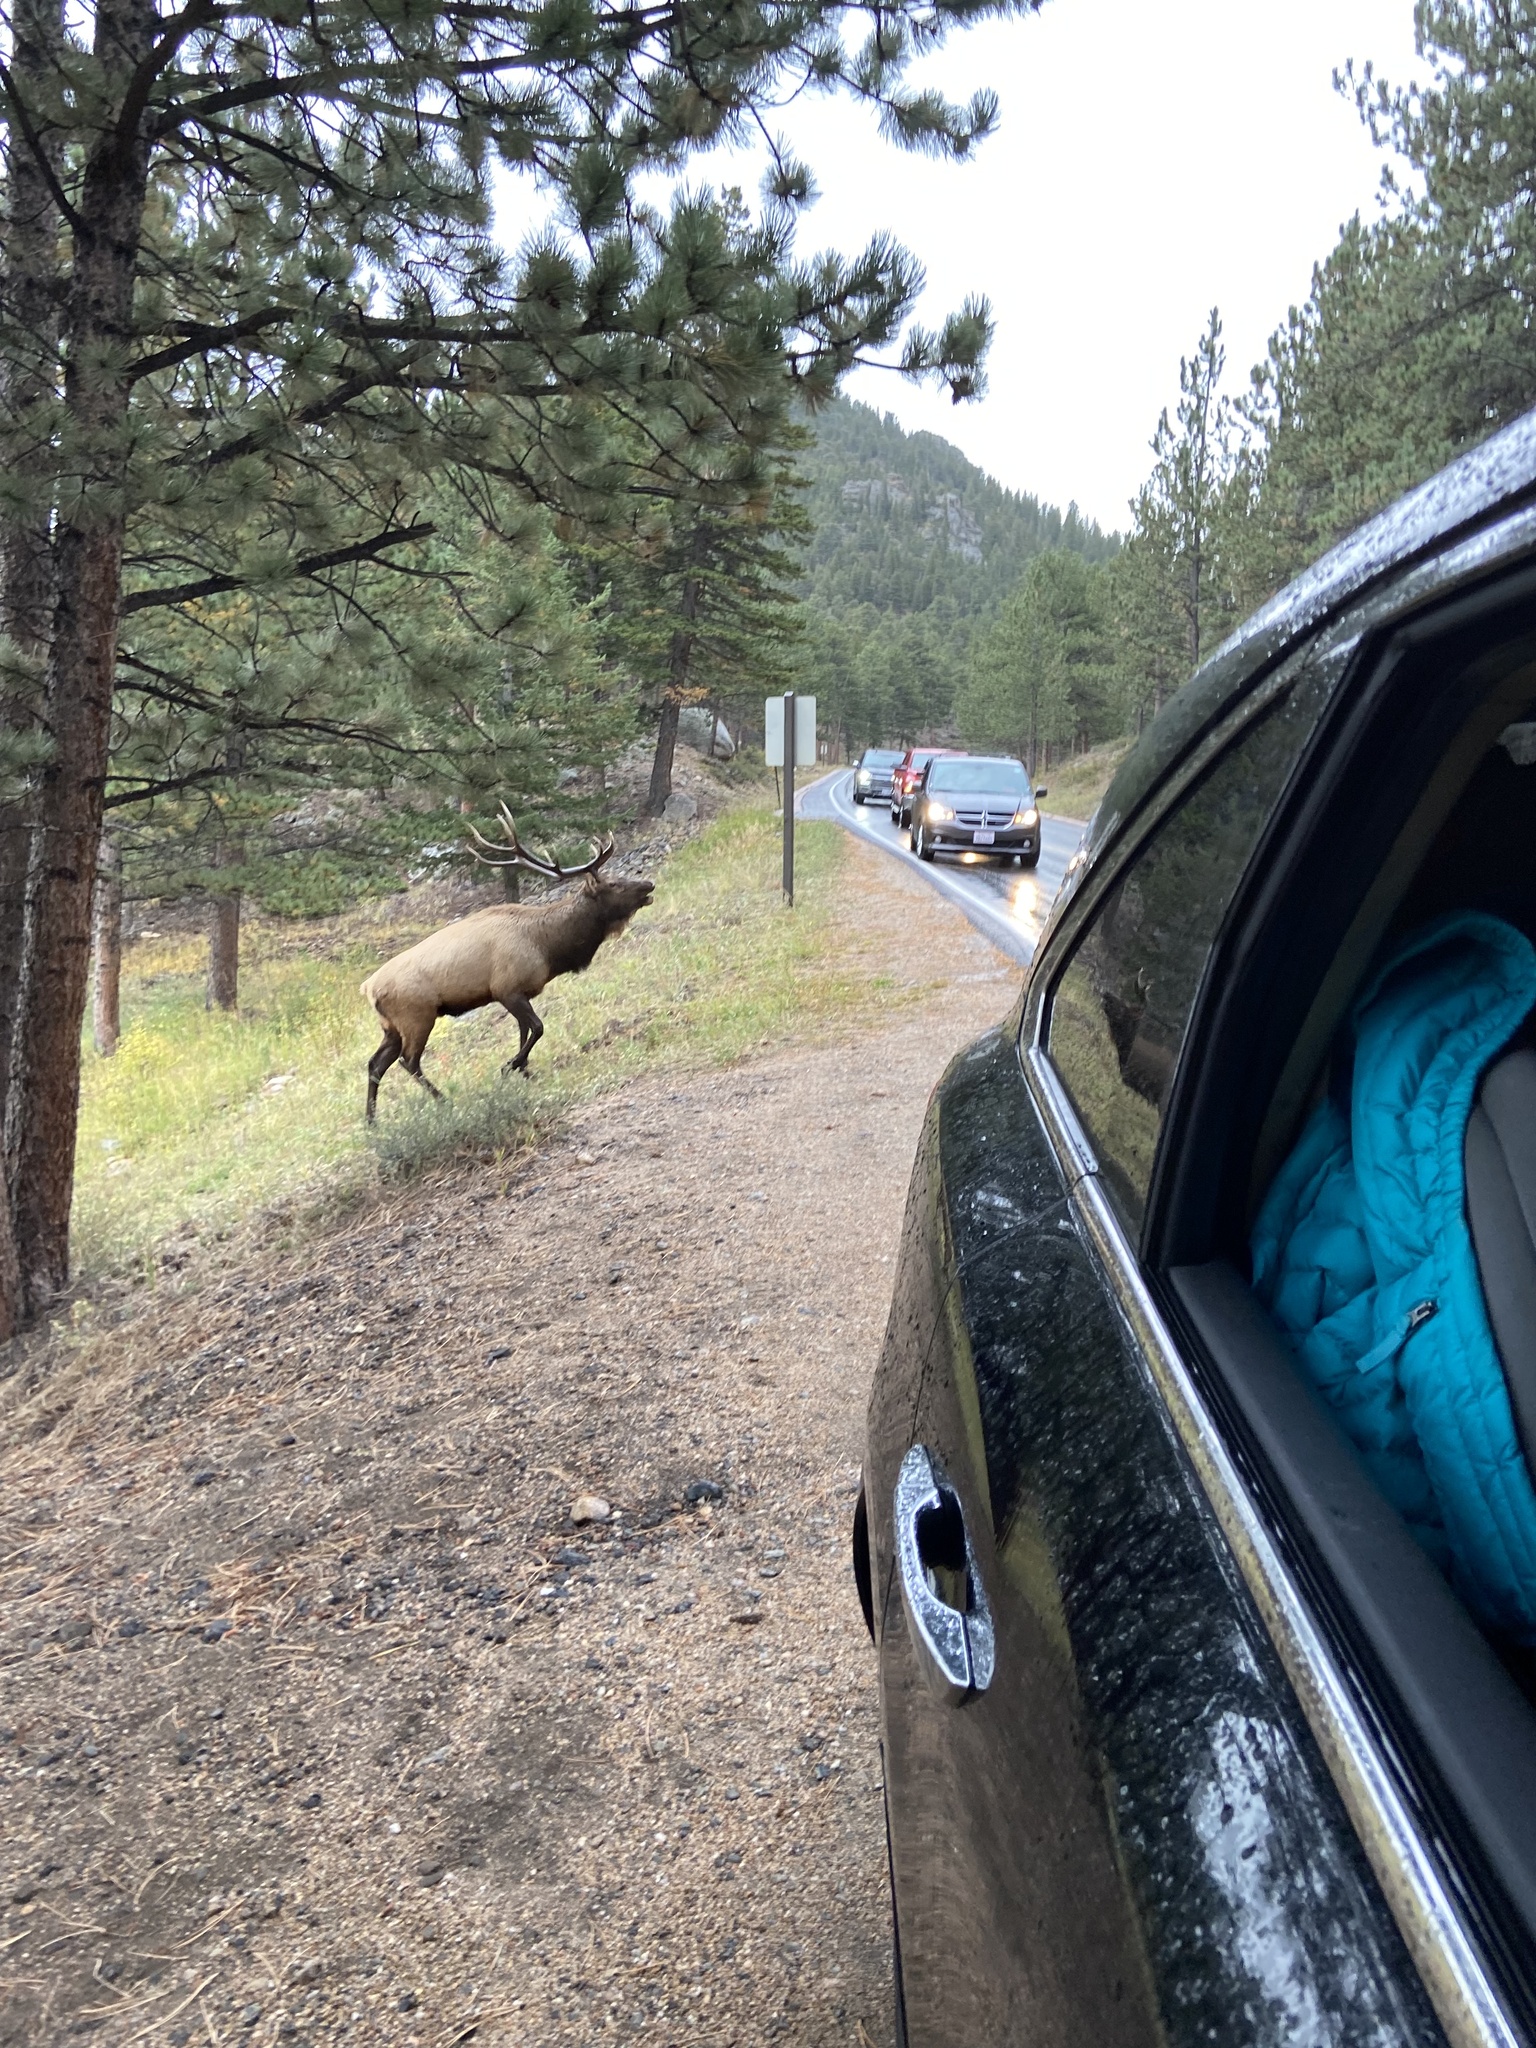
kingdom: Animalia
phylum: Chordata
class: Mammalia
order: Artiodactyla
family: Cervidae
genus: Cervus
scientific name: Cervus elaphus
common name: Red deer
